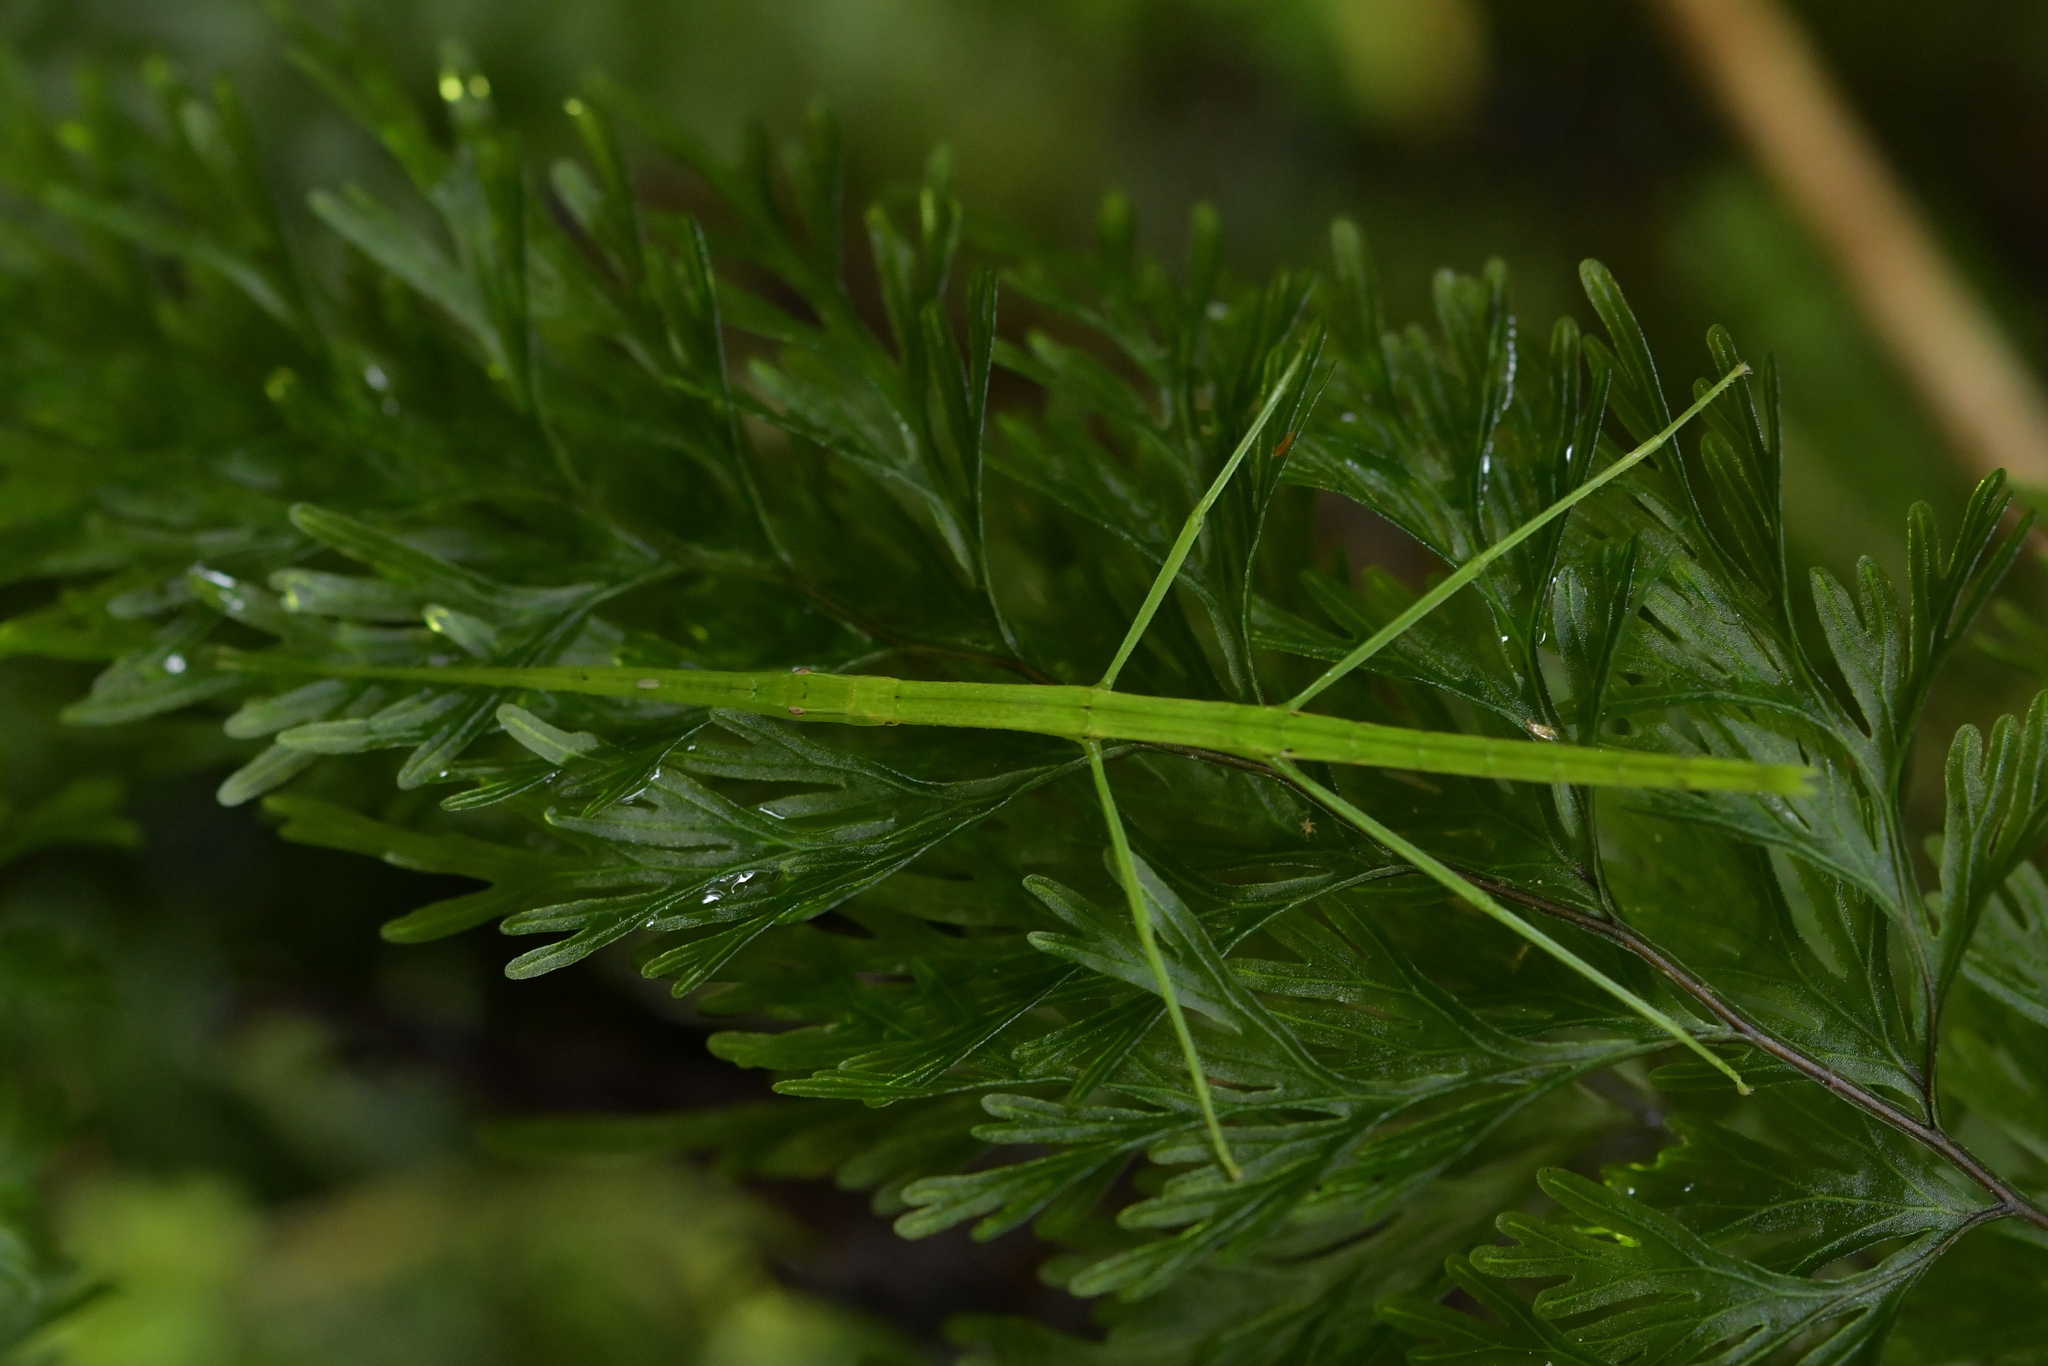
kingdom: Animalia
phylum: Arthropoda
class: Insecta
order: Phasmida
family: Phasmatidae
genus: Clitarchus
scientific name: Clitarchus hookeri
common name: Smooth stick insect
